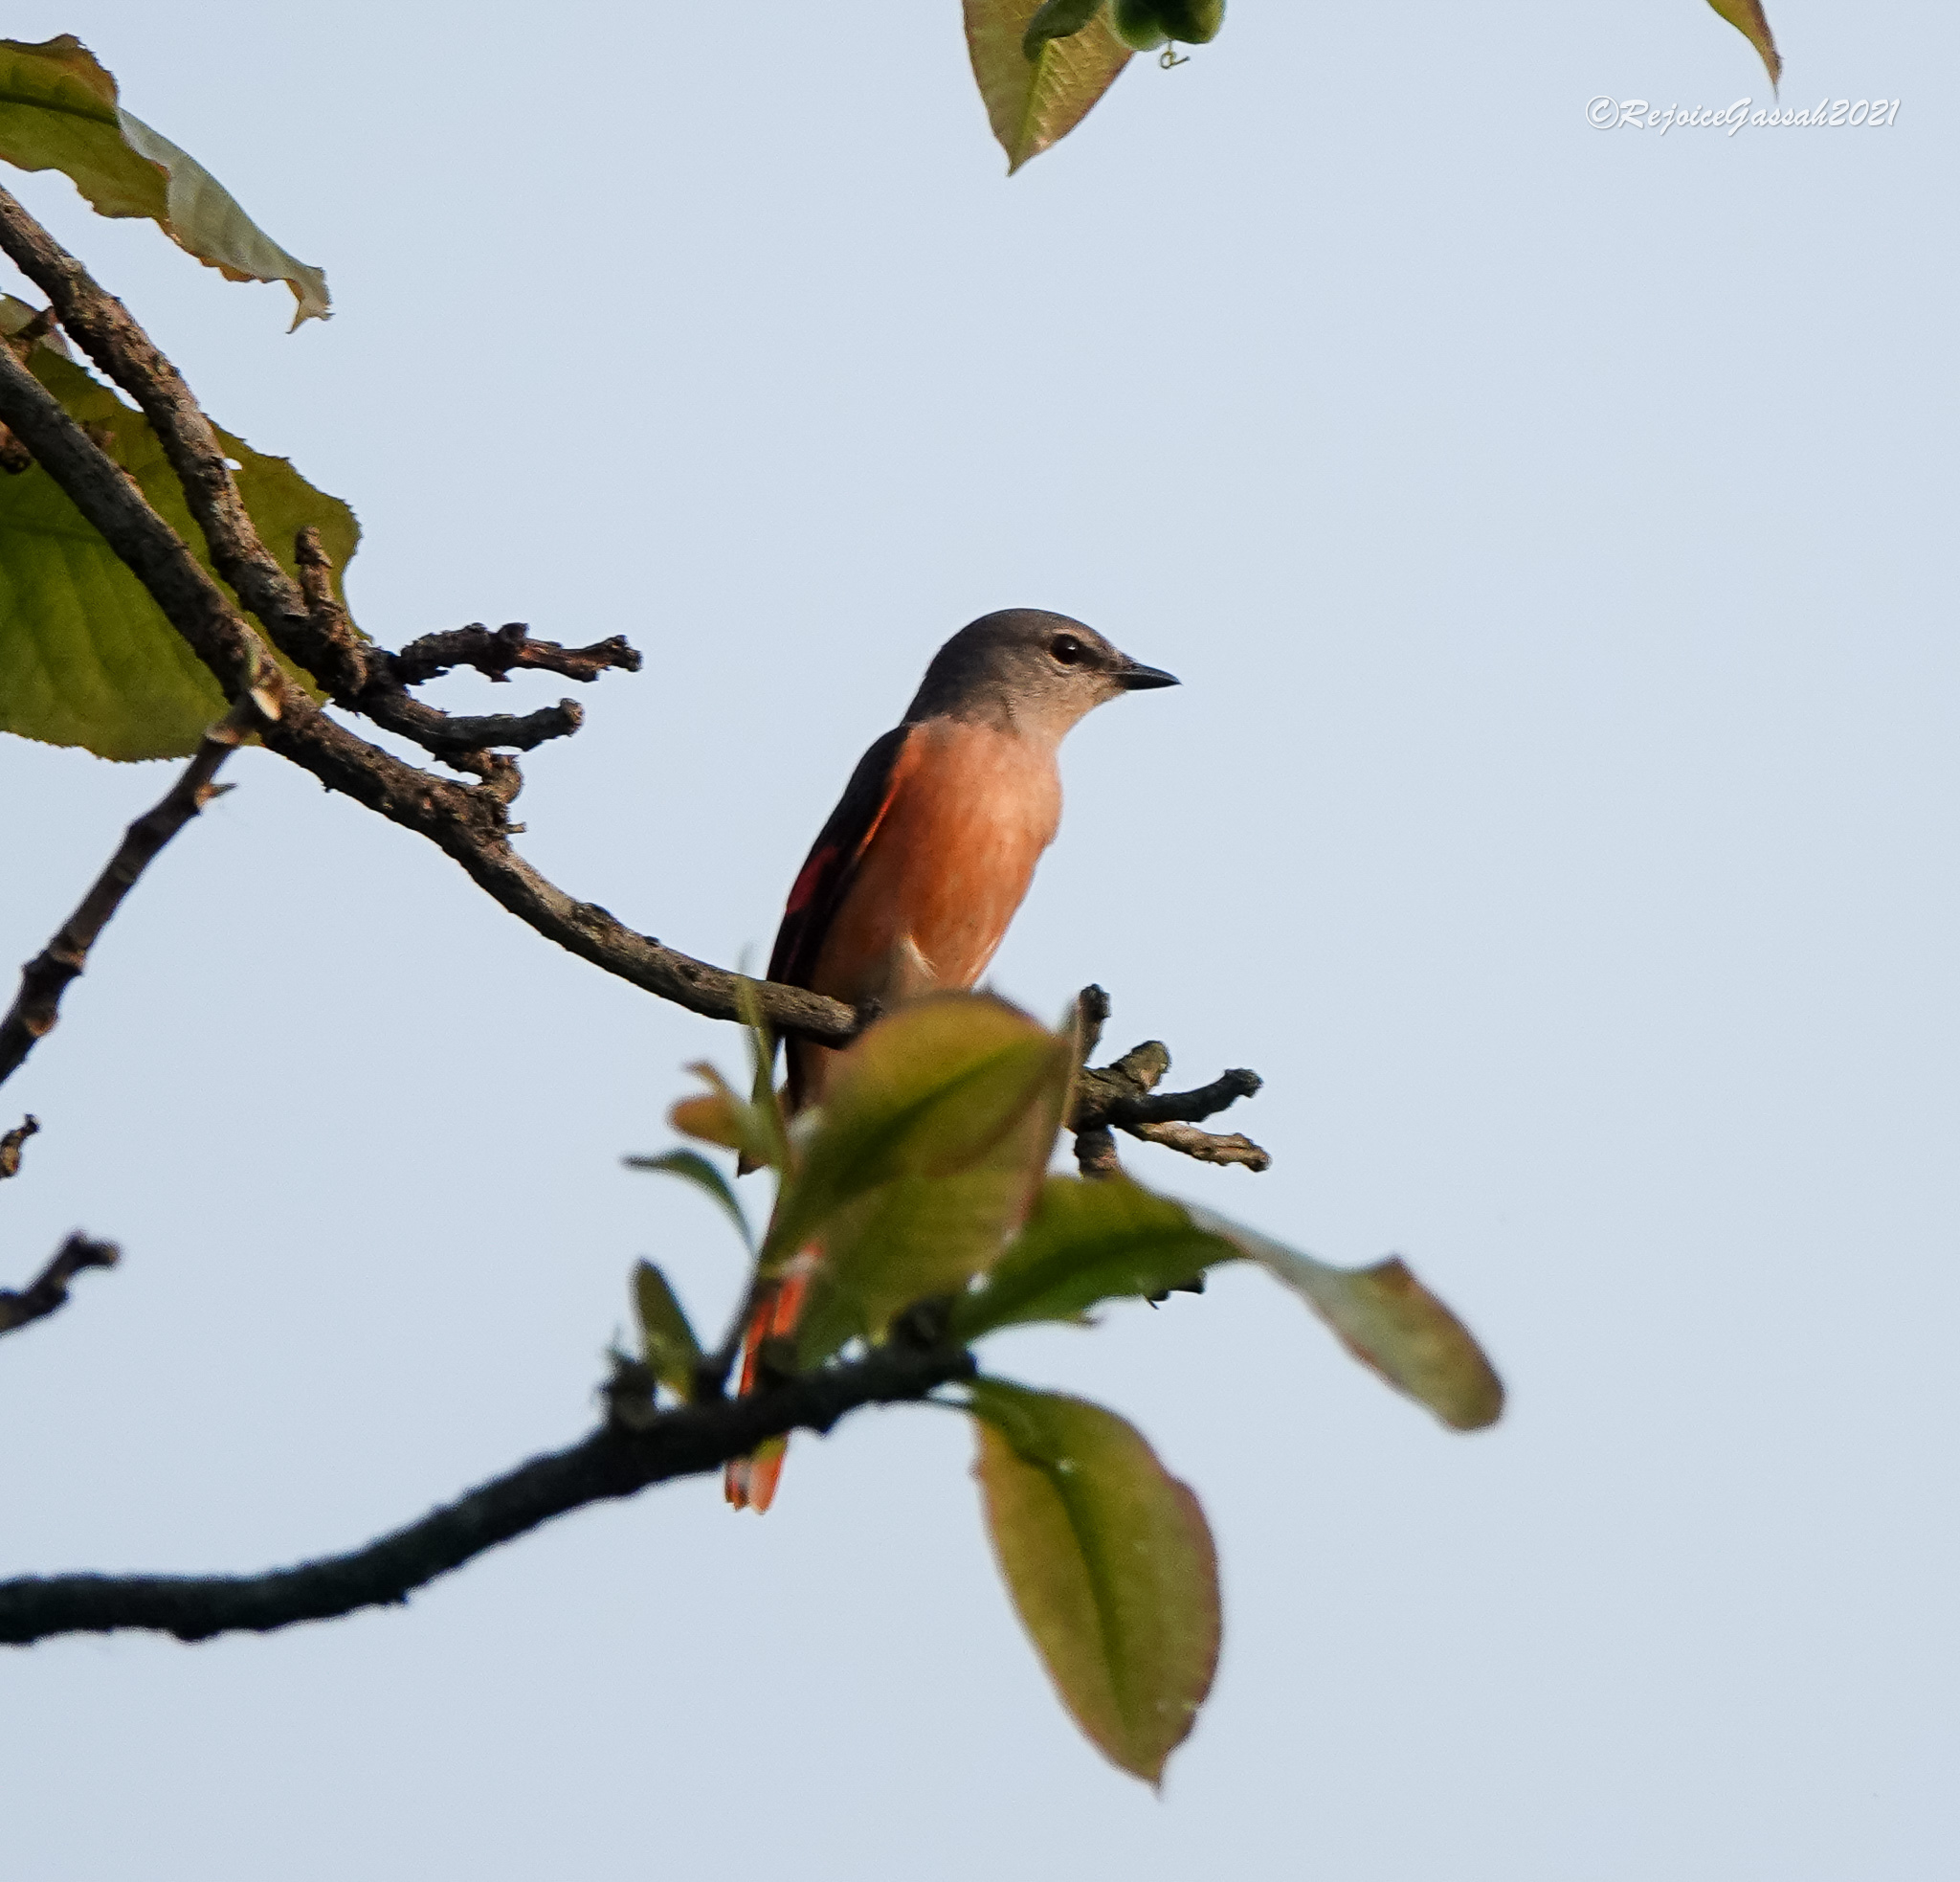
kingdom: Animalia
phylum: Chordata
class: Aves
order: Passeriformes
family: Campephagidae
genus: Pericrocotus
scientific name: Pericrocotus roseus
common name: Rosy minivet
